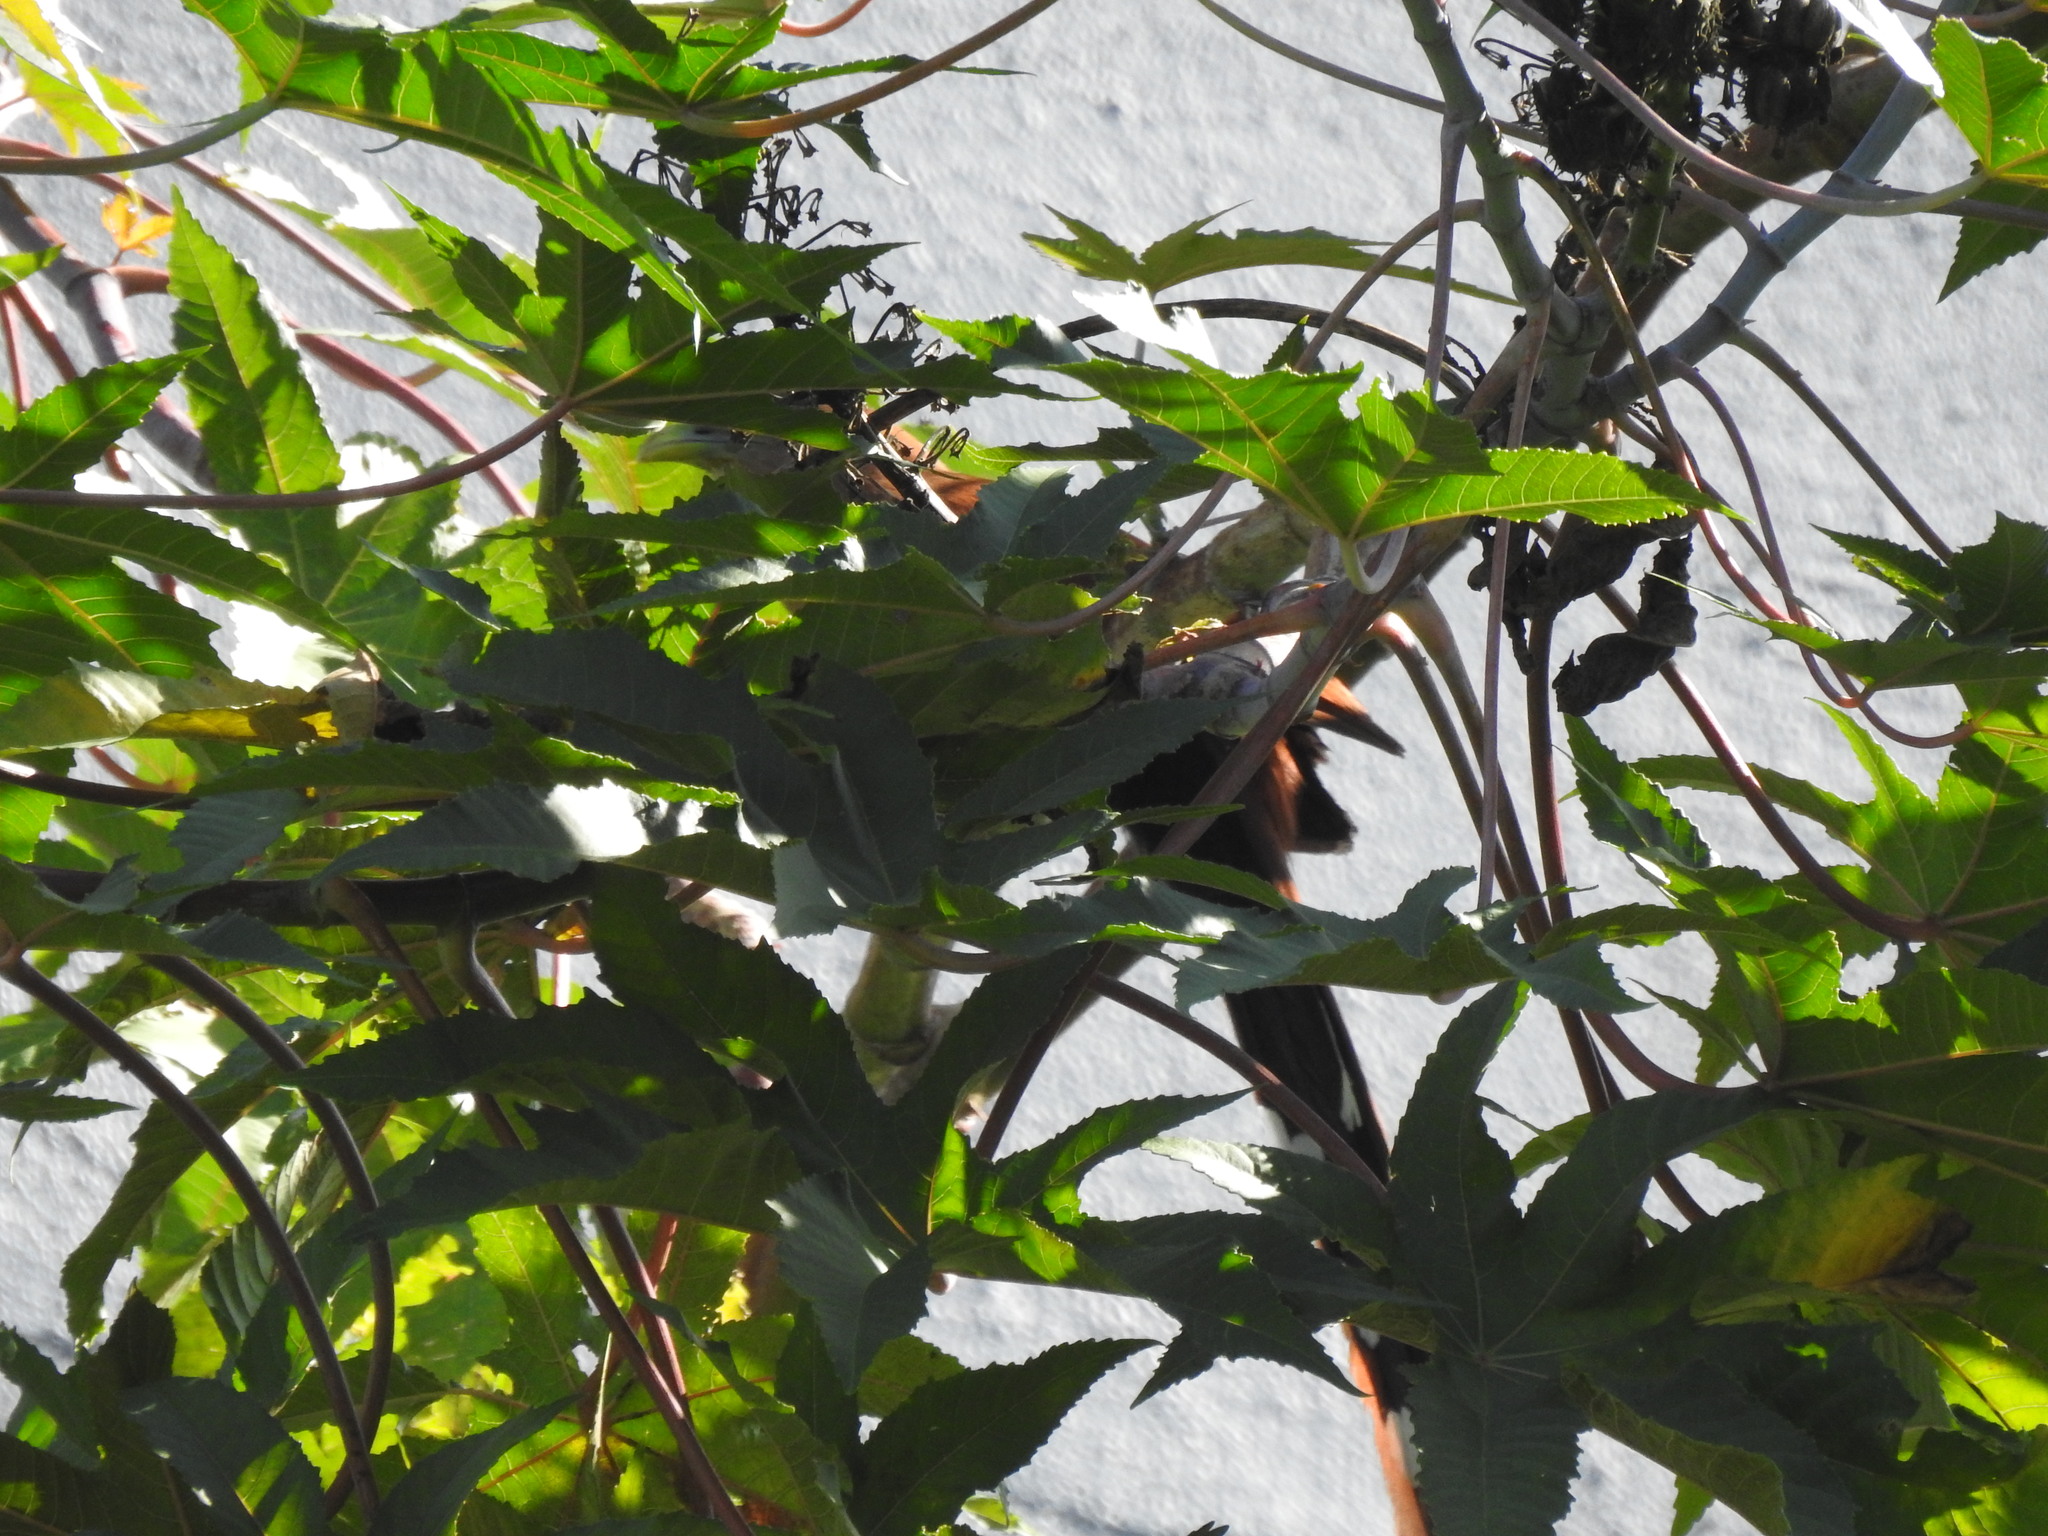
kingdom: Animalia
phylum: Chordata
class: Aves
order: Cuculiformes
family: Cuculidae
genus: Piaya
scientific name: Piaya cayana
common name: Squirrel cuckoo
